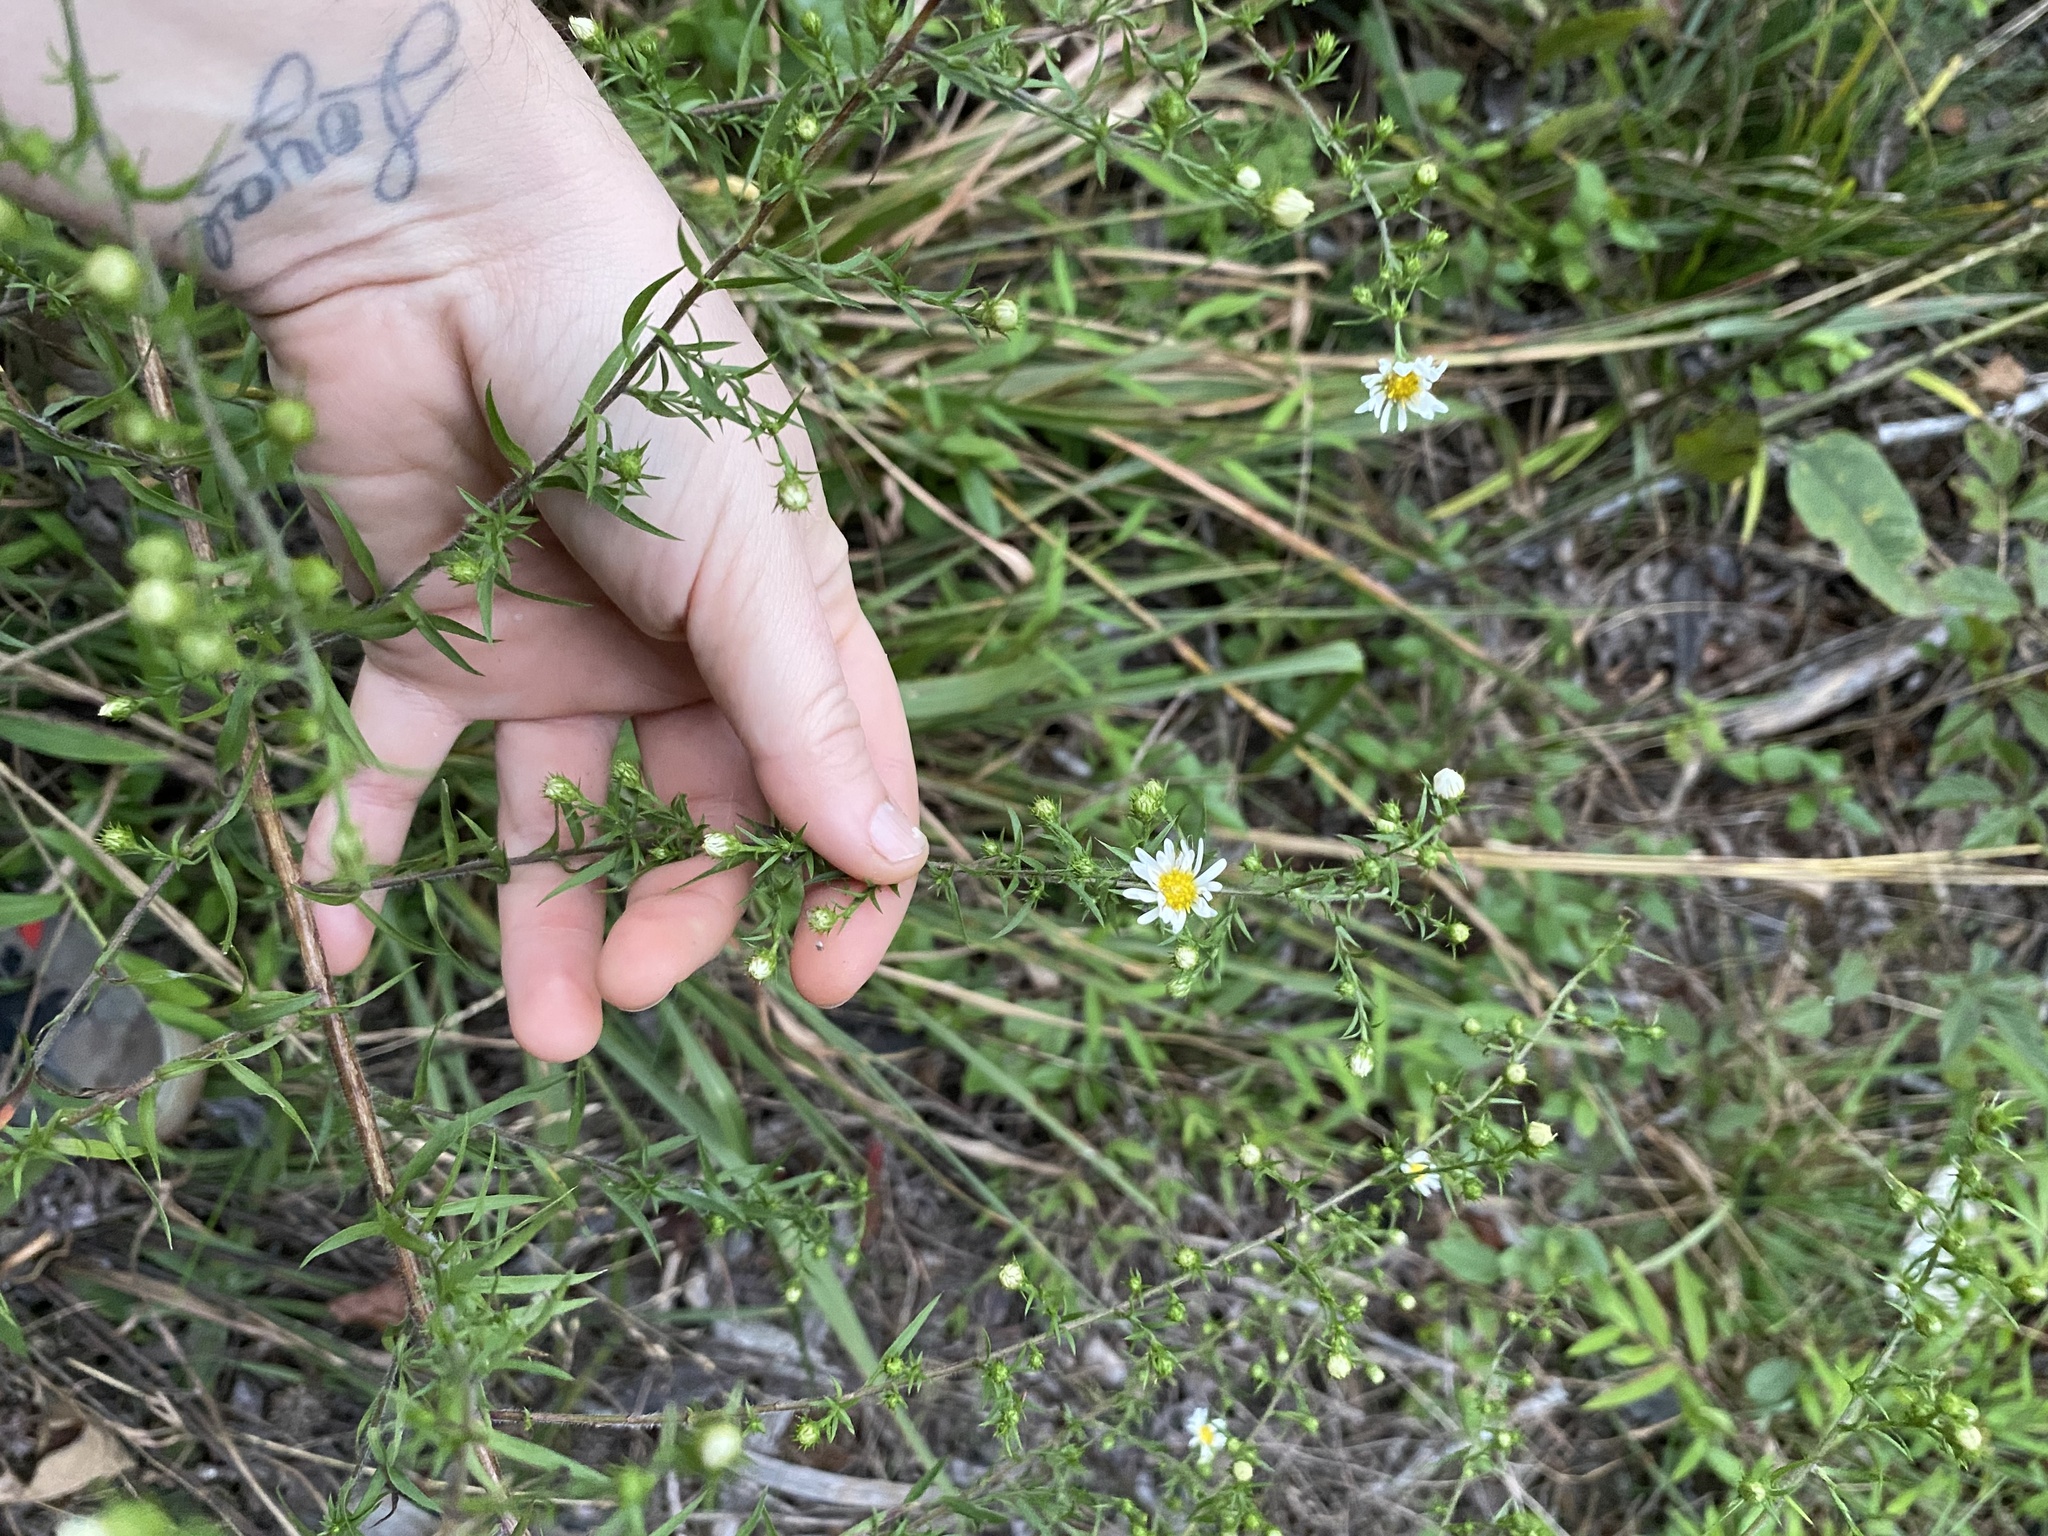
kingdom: Plantae
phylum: Tracheophyta
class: Magnoliopsida
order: Asterales
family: Asteraceae
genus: Symphyotrichum
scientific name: Symphyotrichum pilosum
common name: Awl aster
